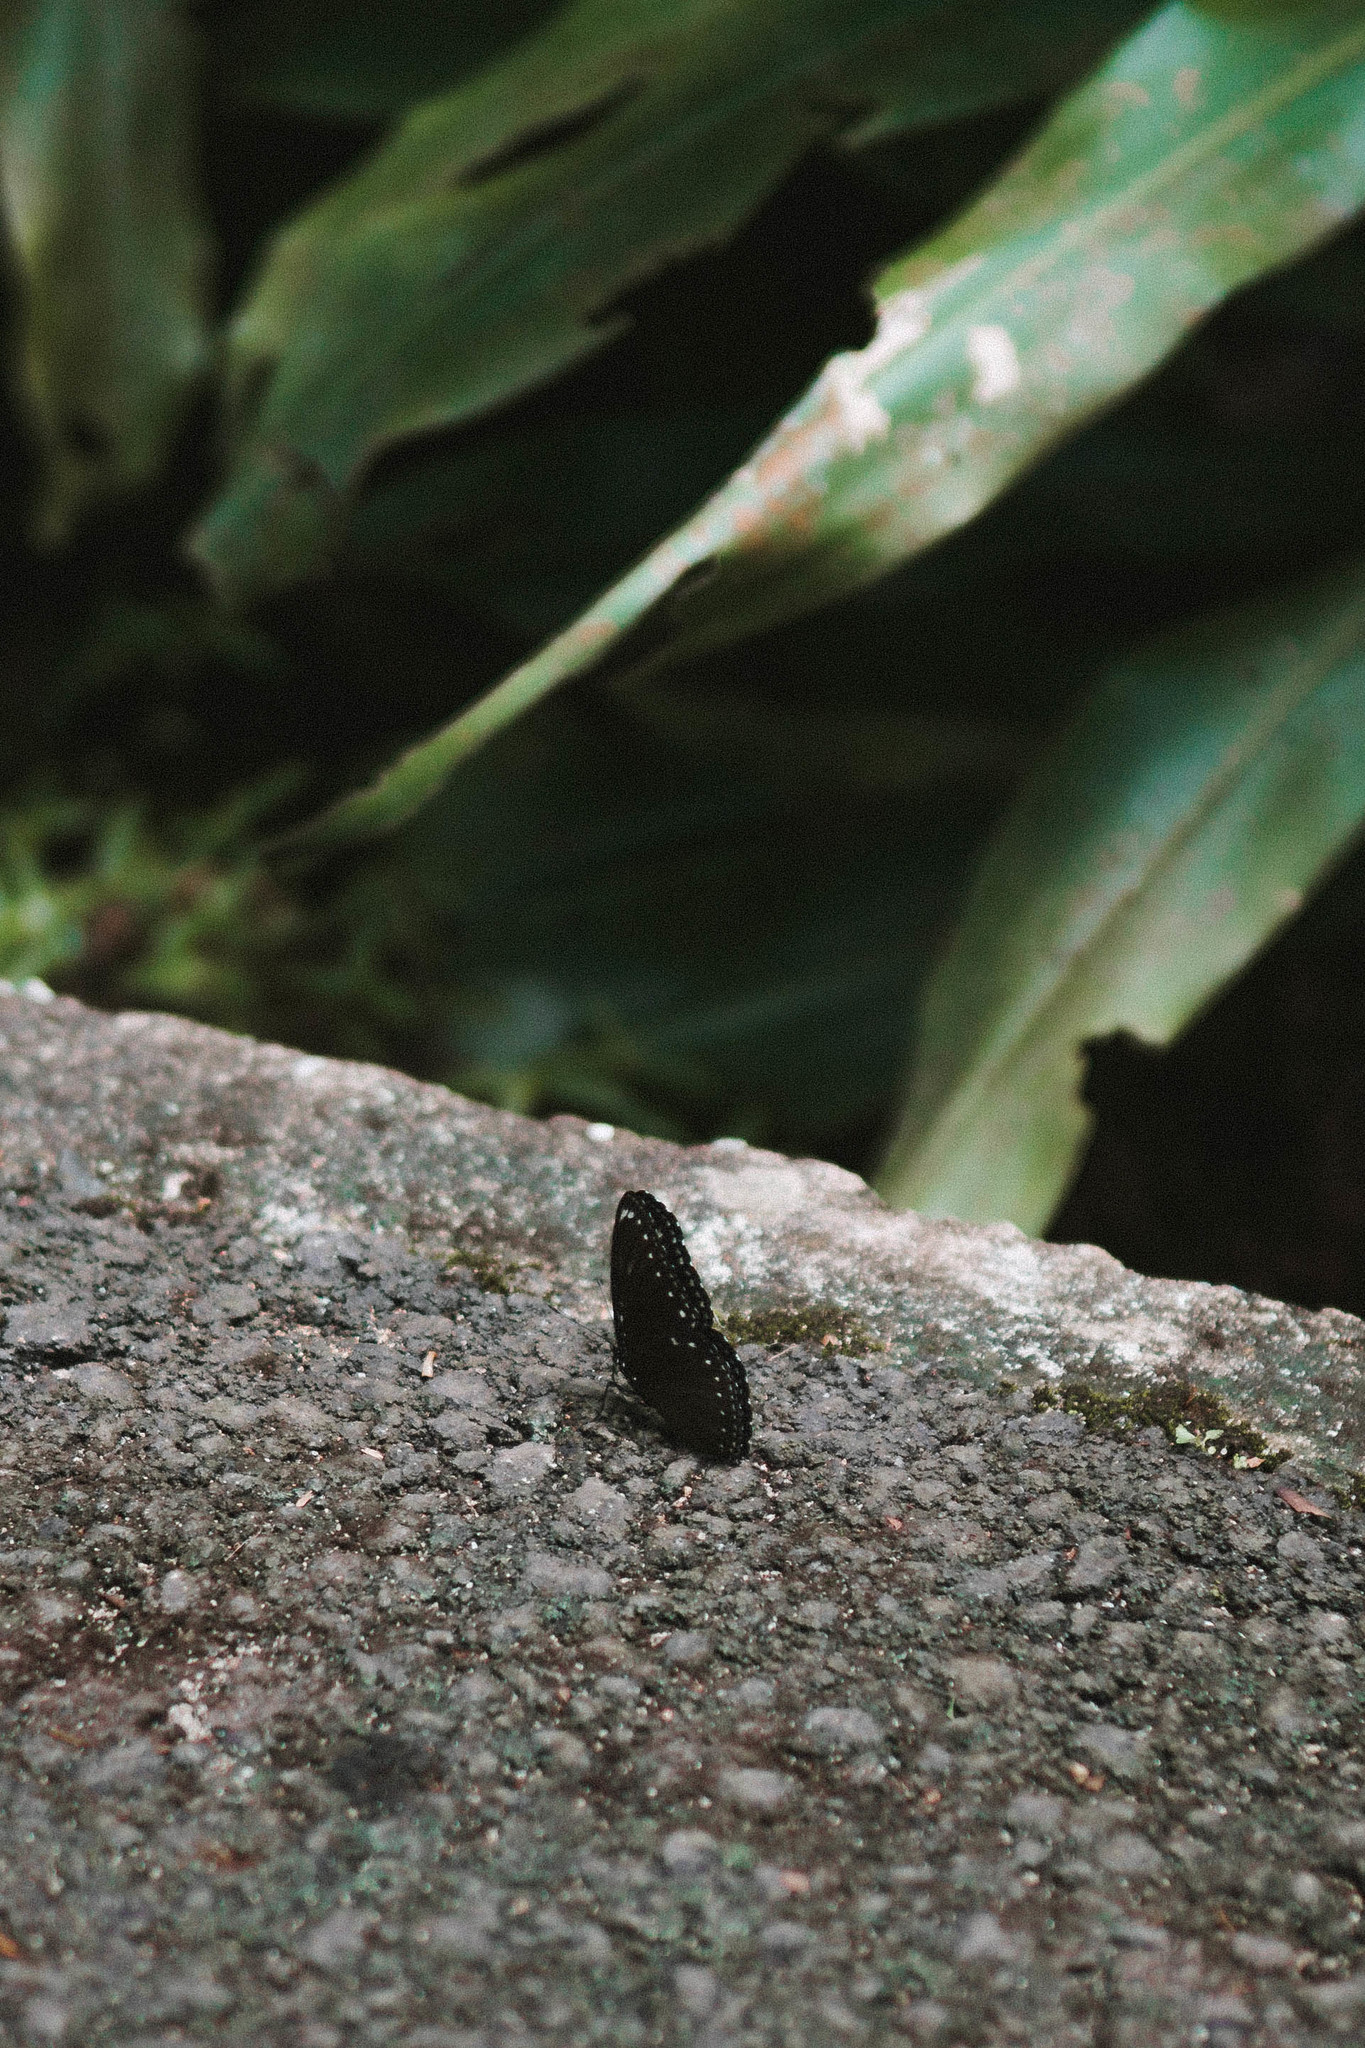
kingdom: Animalia
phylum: Arthropoda
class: Insecta
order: Lepidoptera
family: Nymphalidae
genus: Hypolimnas
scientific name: Hypolimnas anomala
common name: Malayan eggfly
